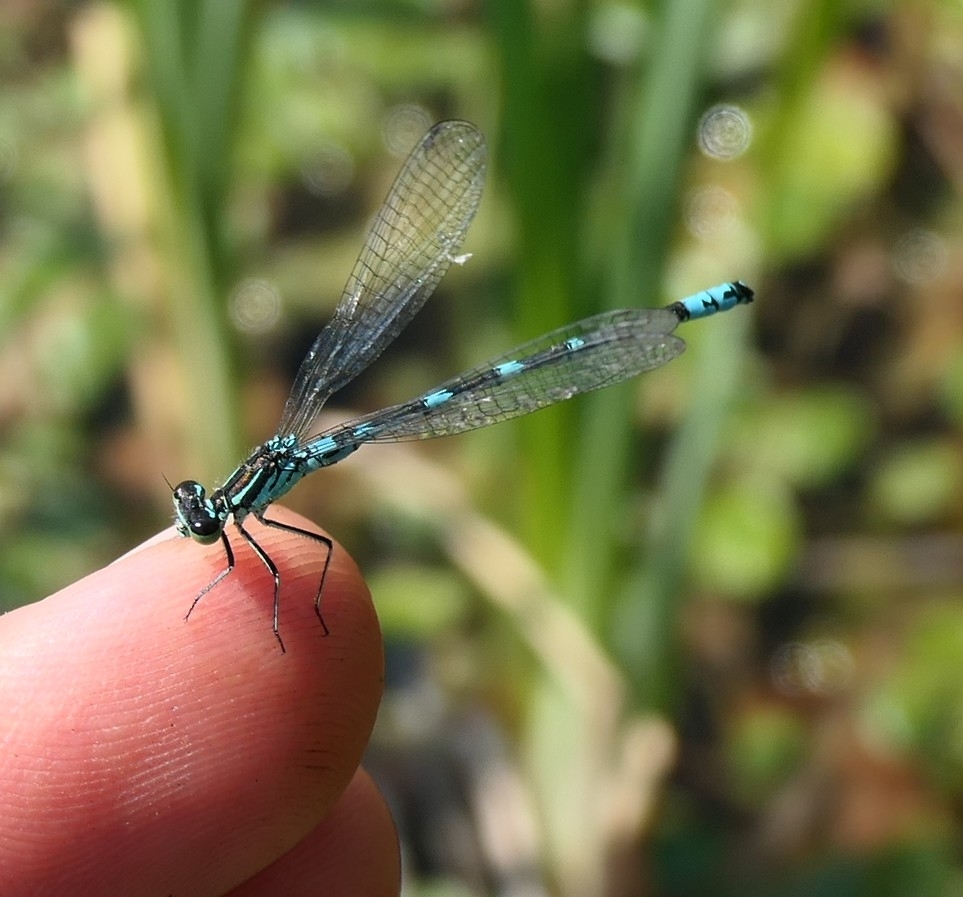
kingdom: Animalia
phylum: Arthropoda
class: Insecta
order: Odonata
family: Coenagrionidae
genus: Coenagrion
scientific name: Coenagrion hastulatum
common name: Spearhead bluet
